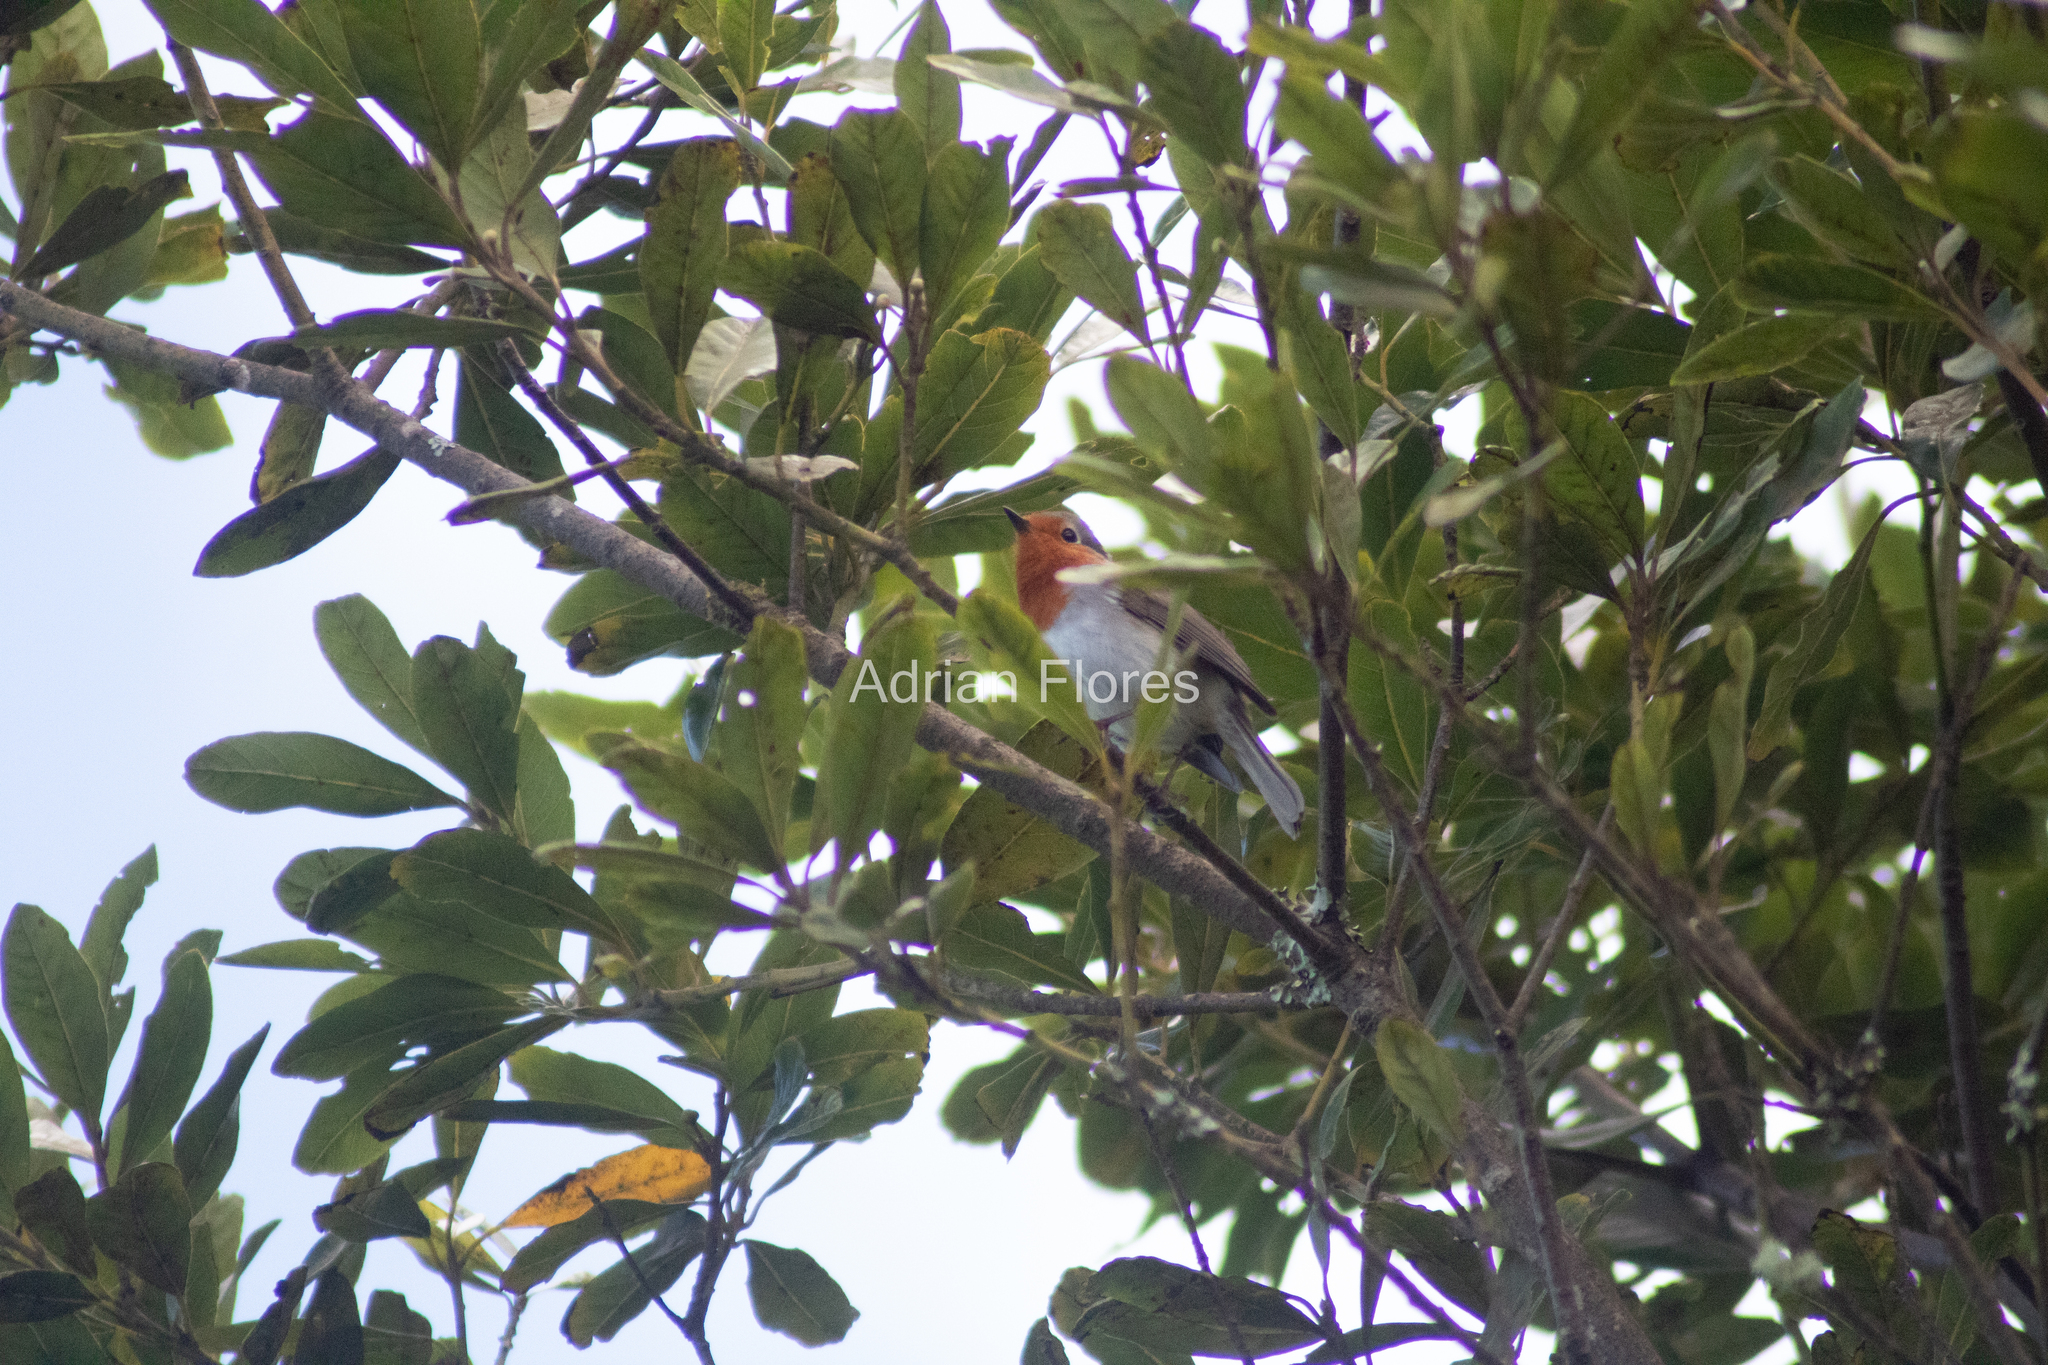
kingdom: Animalia
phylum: Chordata
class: Aves
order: Passeriformes
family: Muscicapidae
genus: Erithacus
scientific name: Erithacus rubecula
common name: European robin
